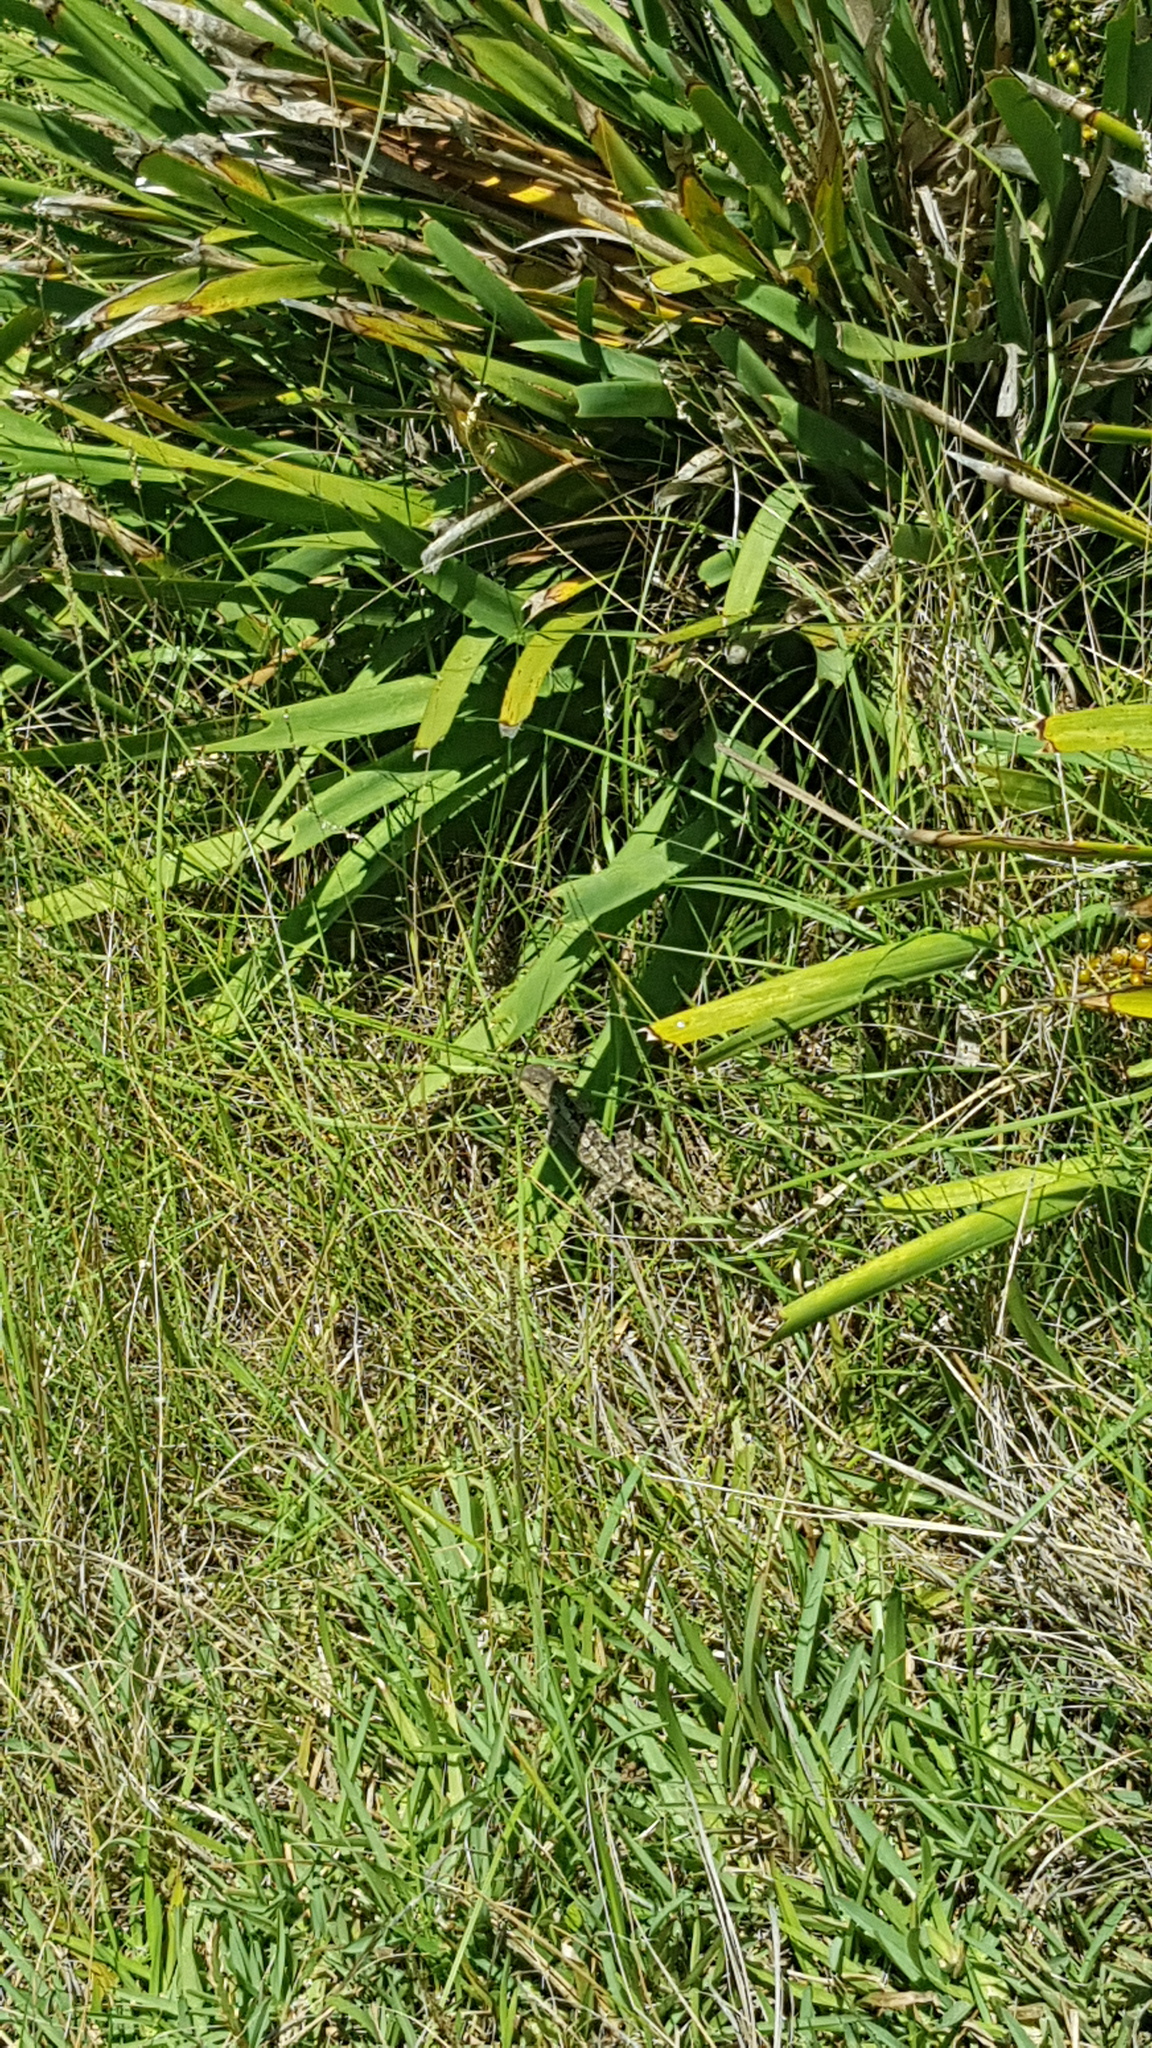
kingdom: Animalia
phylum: Chordata
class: Squamata
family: Agamidae
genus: Amphibolurus
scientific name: Amphibolurus muricatus
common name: Jacky lizard
